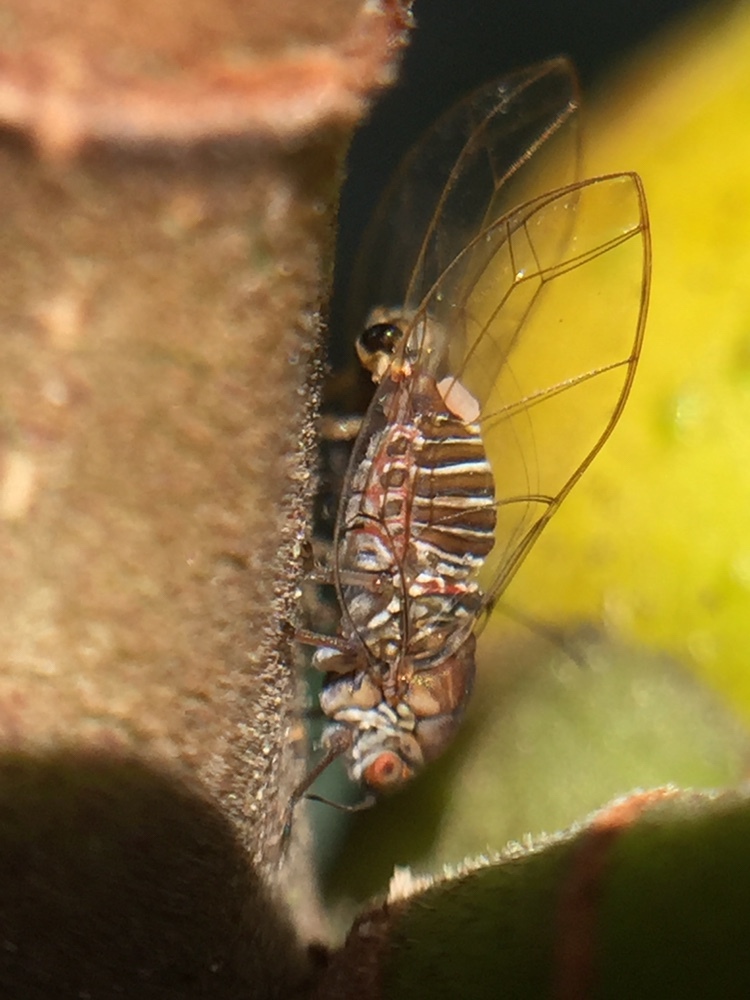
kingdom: Animalia
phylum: Arthropoda
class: Insecta
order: Hemiptera
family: Homotomidae
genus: Mycopsylla
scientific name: Mycopsylla obliqua
